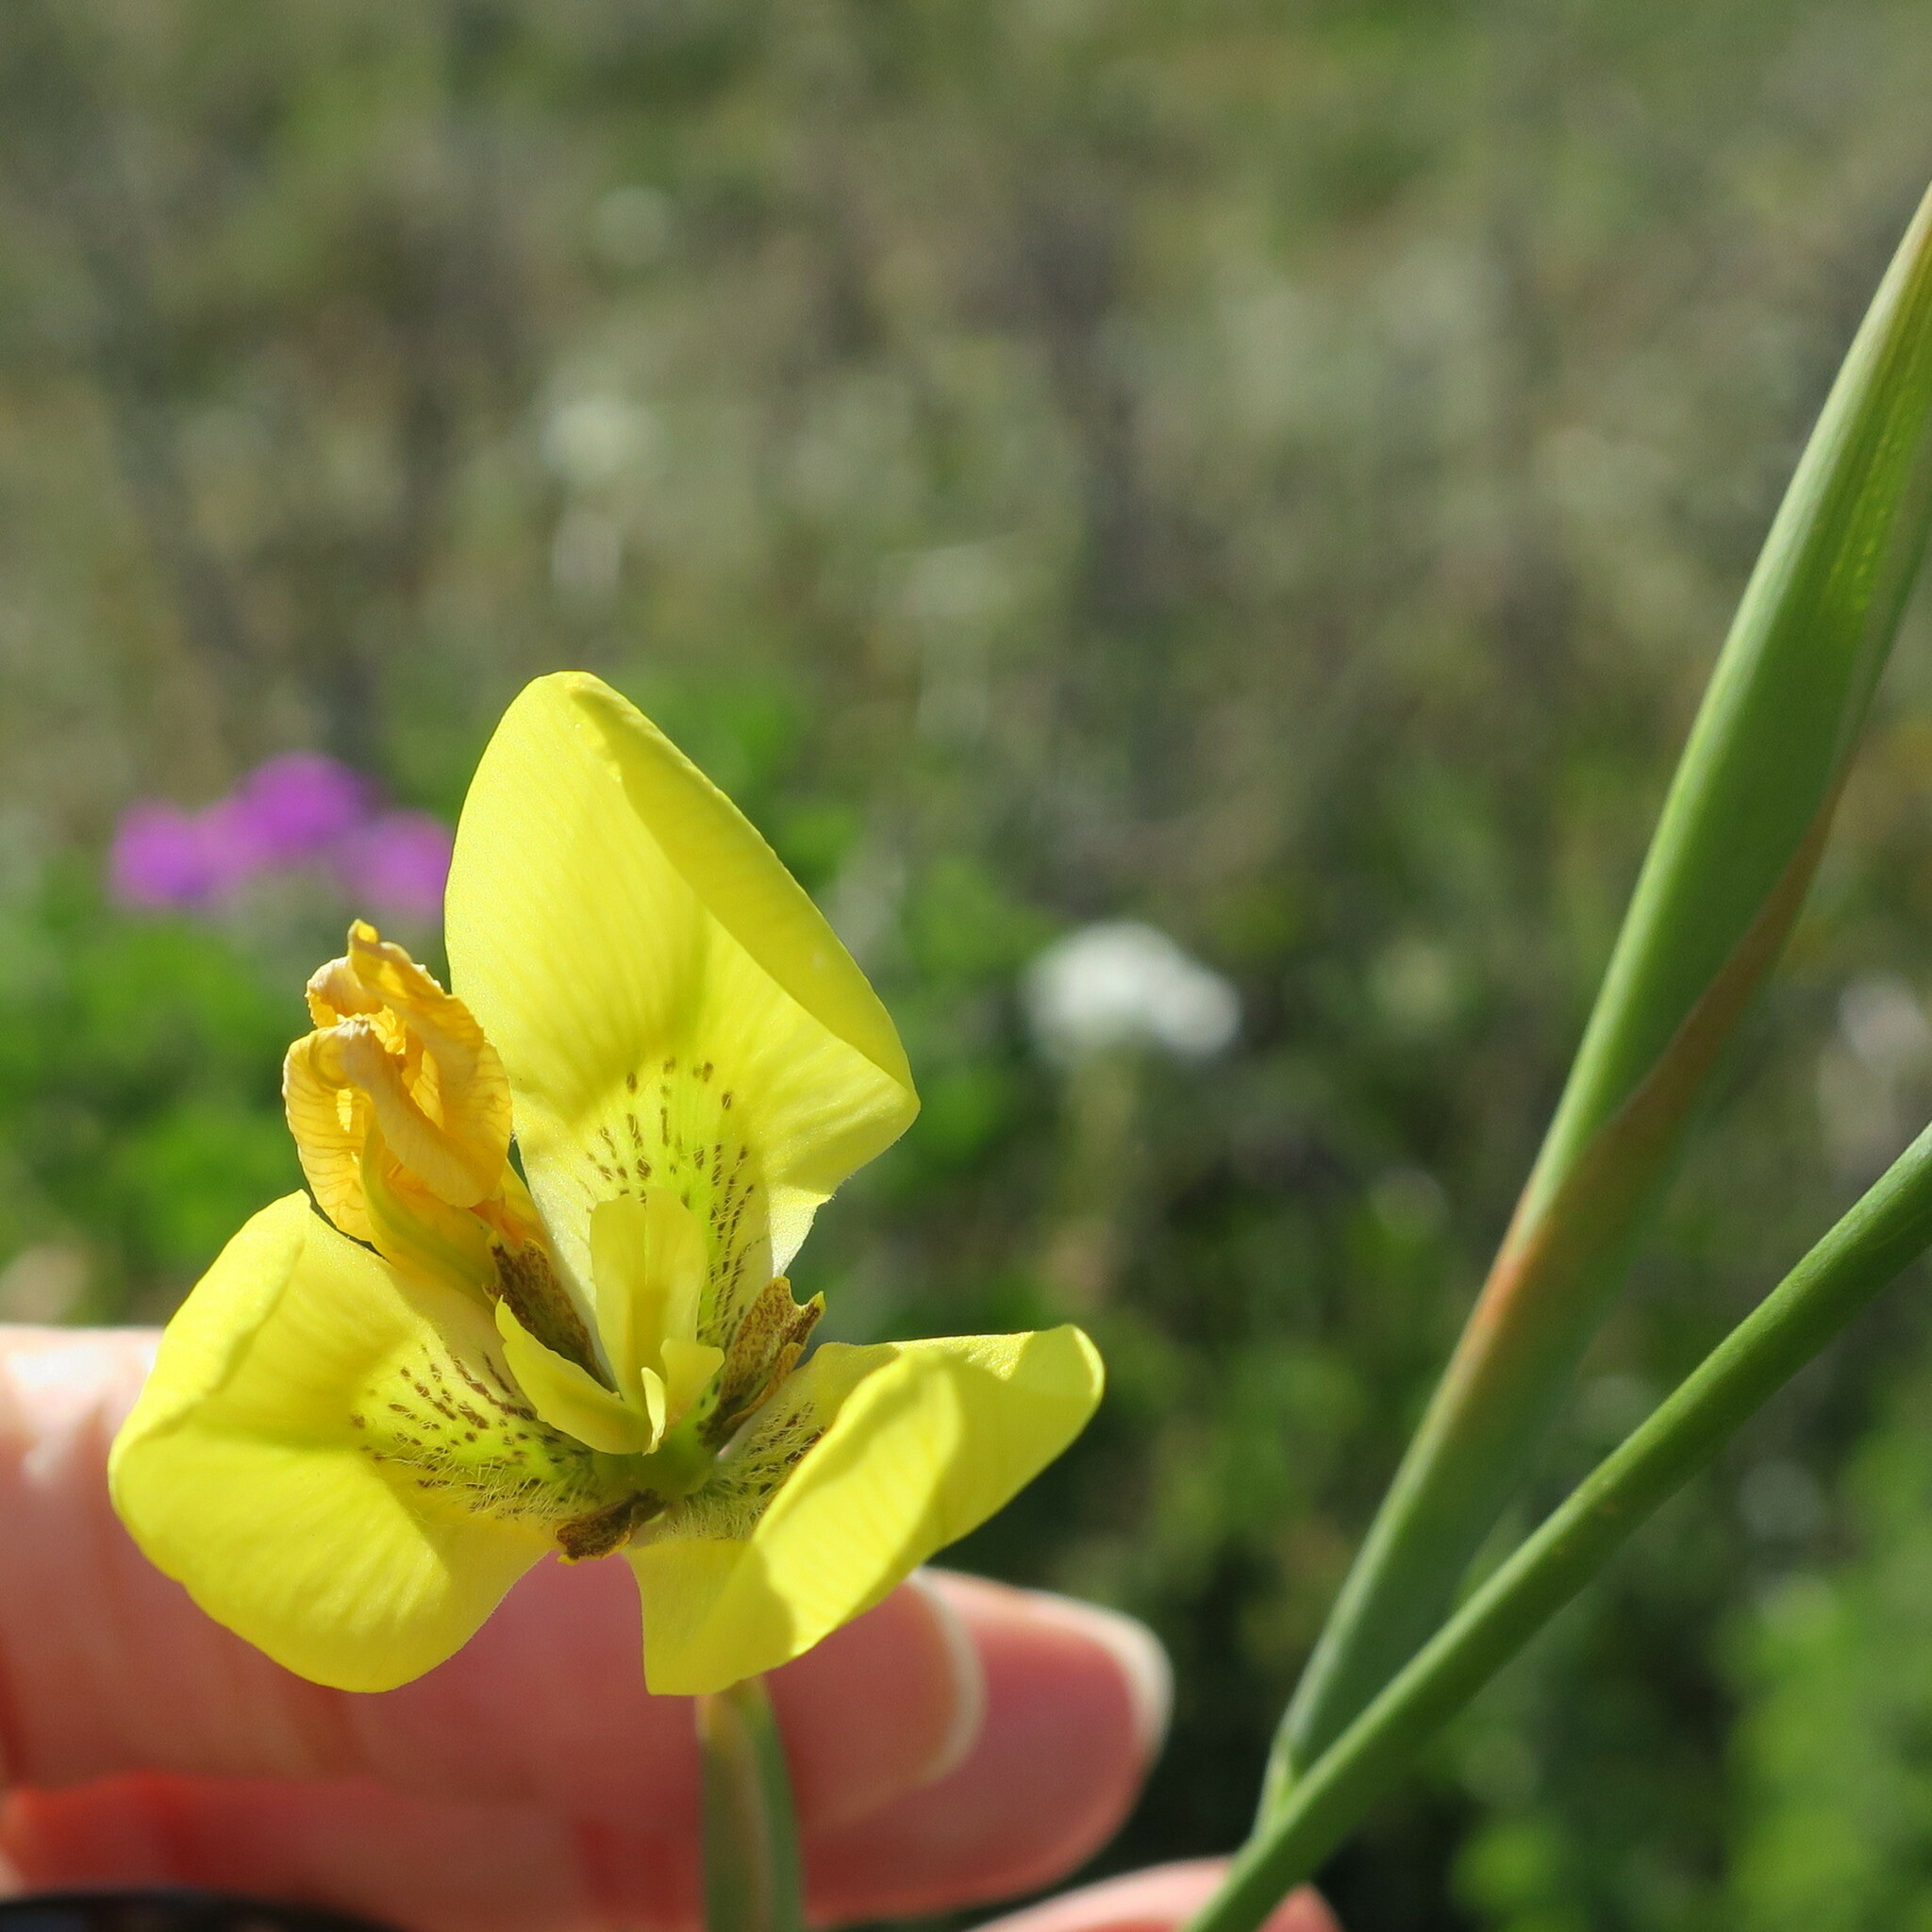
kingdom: Plantae
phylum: Tracheophyta
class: Liliopsida
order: Asparagales
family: Iridaceae
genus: Moraea
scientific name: Moraea bellendenii
